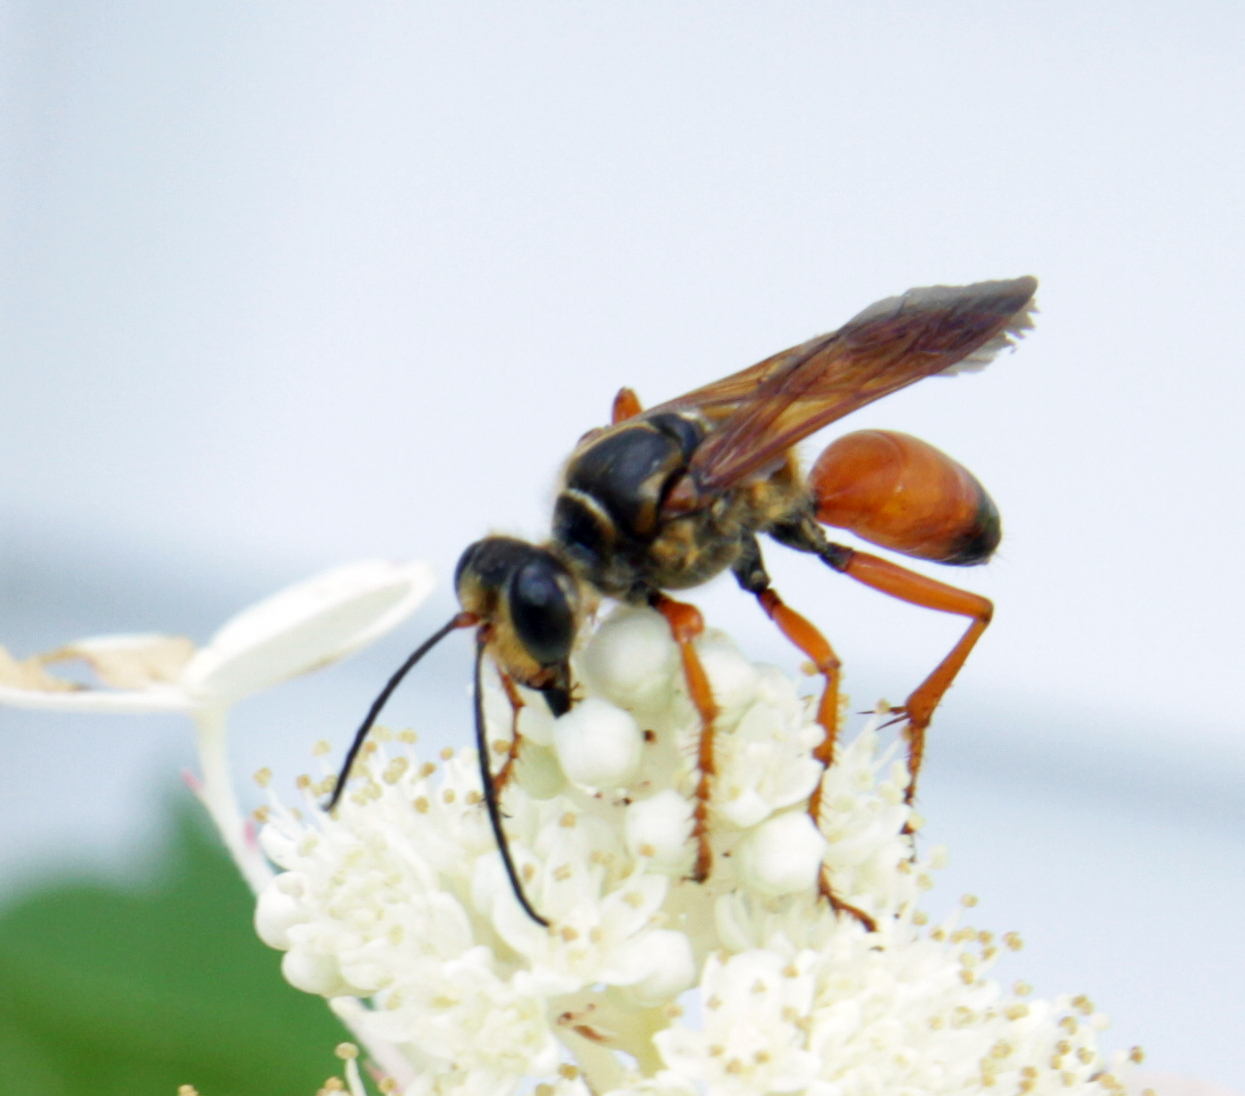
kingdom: Animalia
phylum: Arthropoda
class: Insecta
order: Hymenoptera
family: Sphecidae
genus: Sphex
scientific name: Sphex ichneumoneus
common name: Great golden digger wasp
